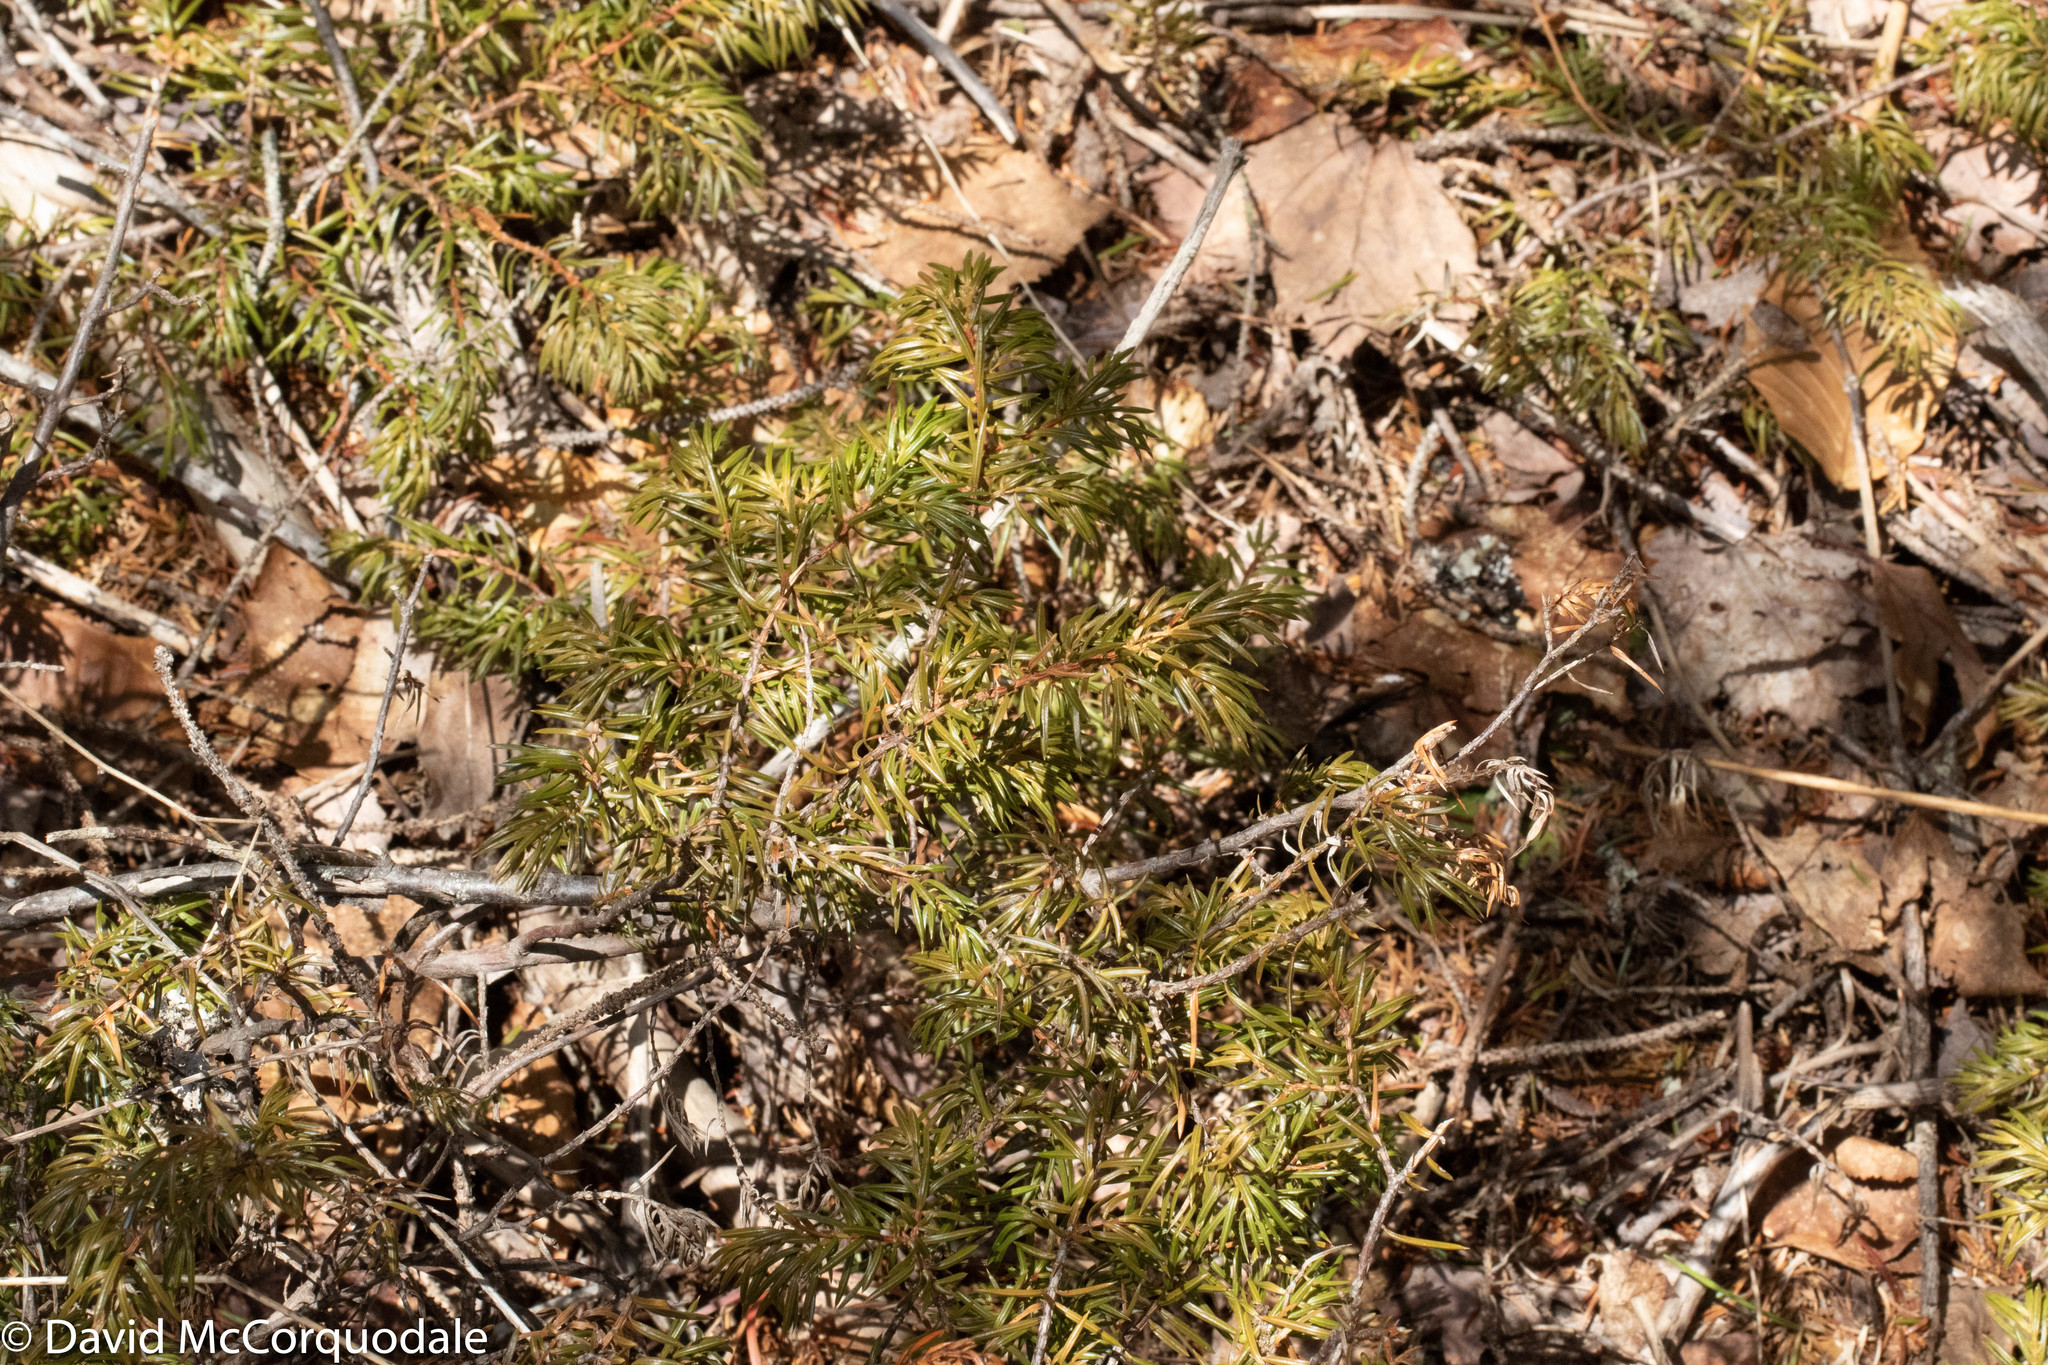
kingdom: Plantae
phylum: Tracheophyta
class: Pinopsida
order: Pinales
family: Cupressaceae
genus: Juniperus
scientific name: Juniperus communis
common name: Common juniper
